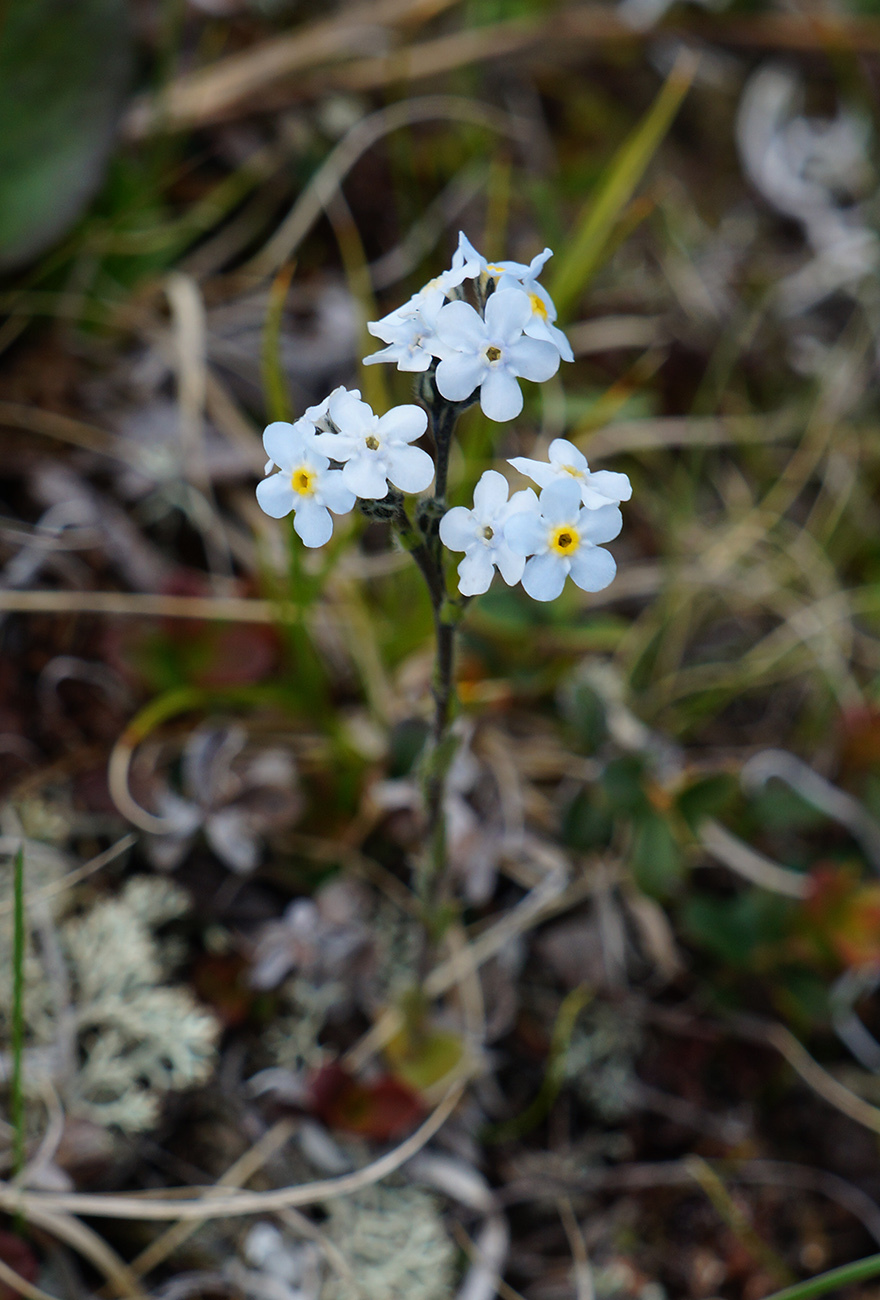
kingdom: Plantae
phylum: Tracheophyta
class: Magnoliopsida
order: Boraginales
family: Boraginaceae
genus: Eritrichium
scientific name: Eritrichium caucasicum
